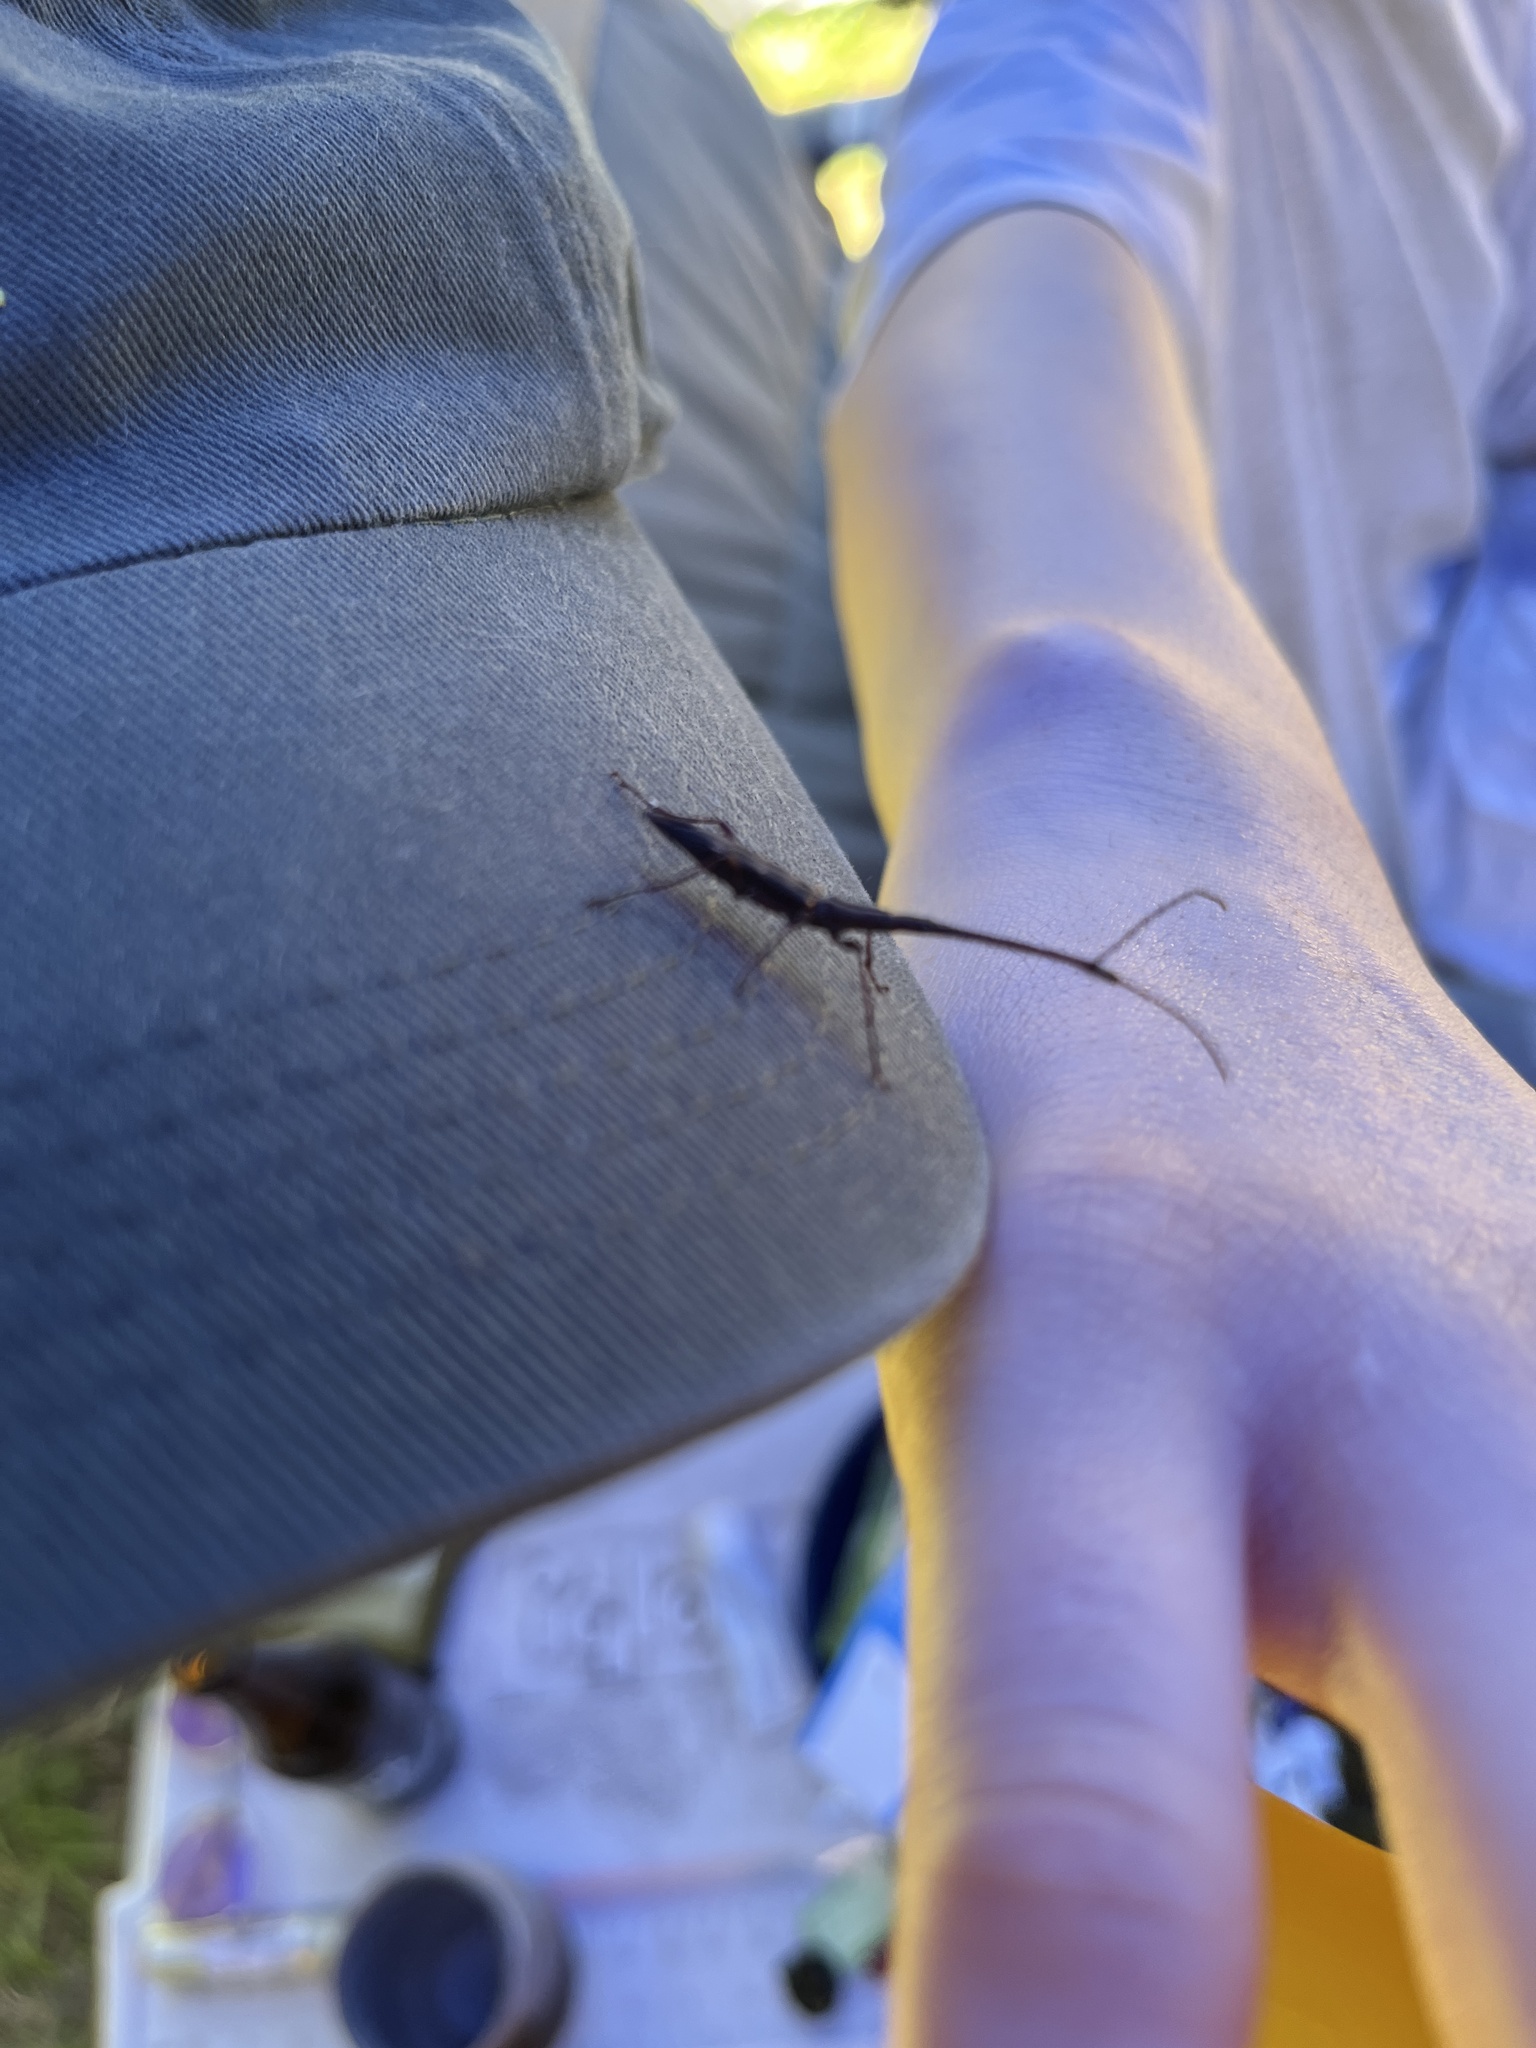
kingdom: Animalia
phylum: Arthropoda
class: Insecta
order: Coleoptera
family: Brentidae
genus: Lasiorhynchus
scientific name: Lasiorhynchus barbicornis
